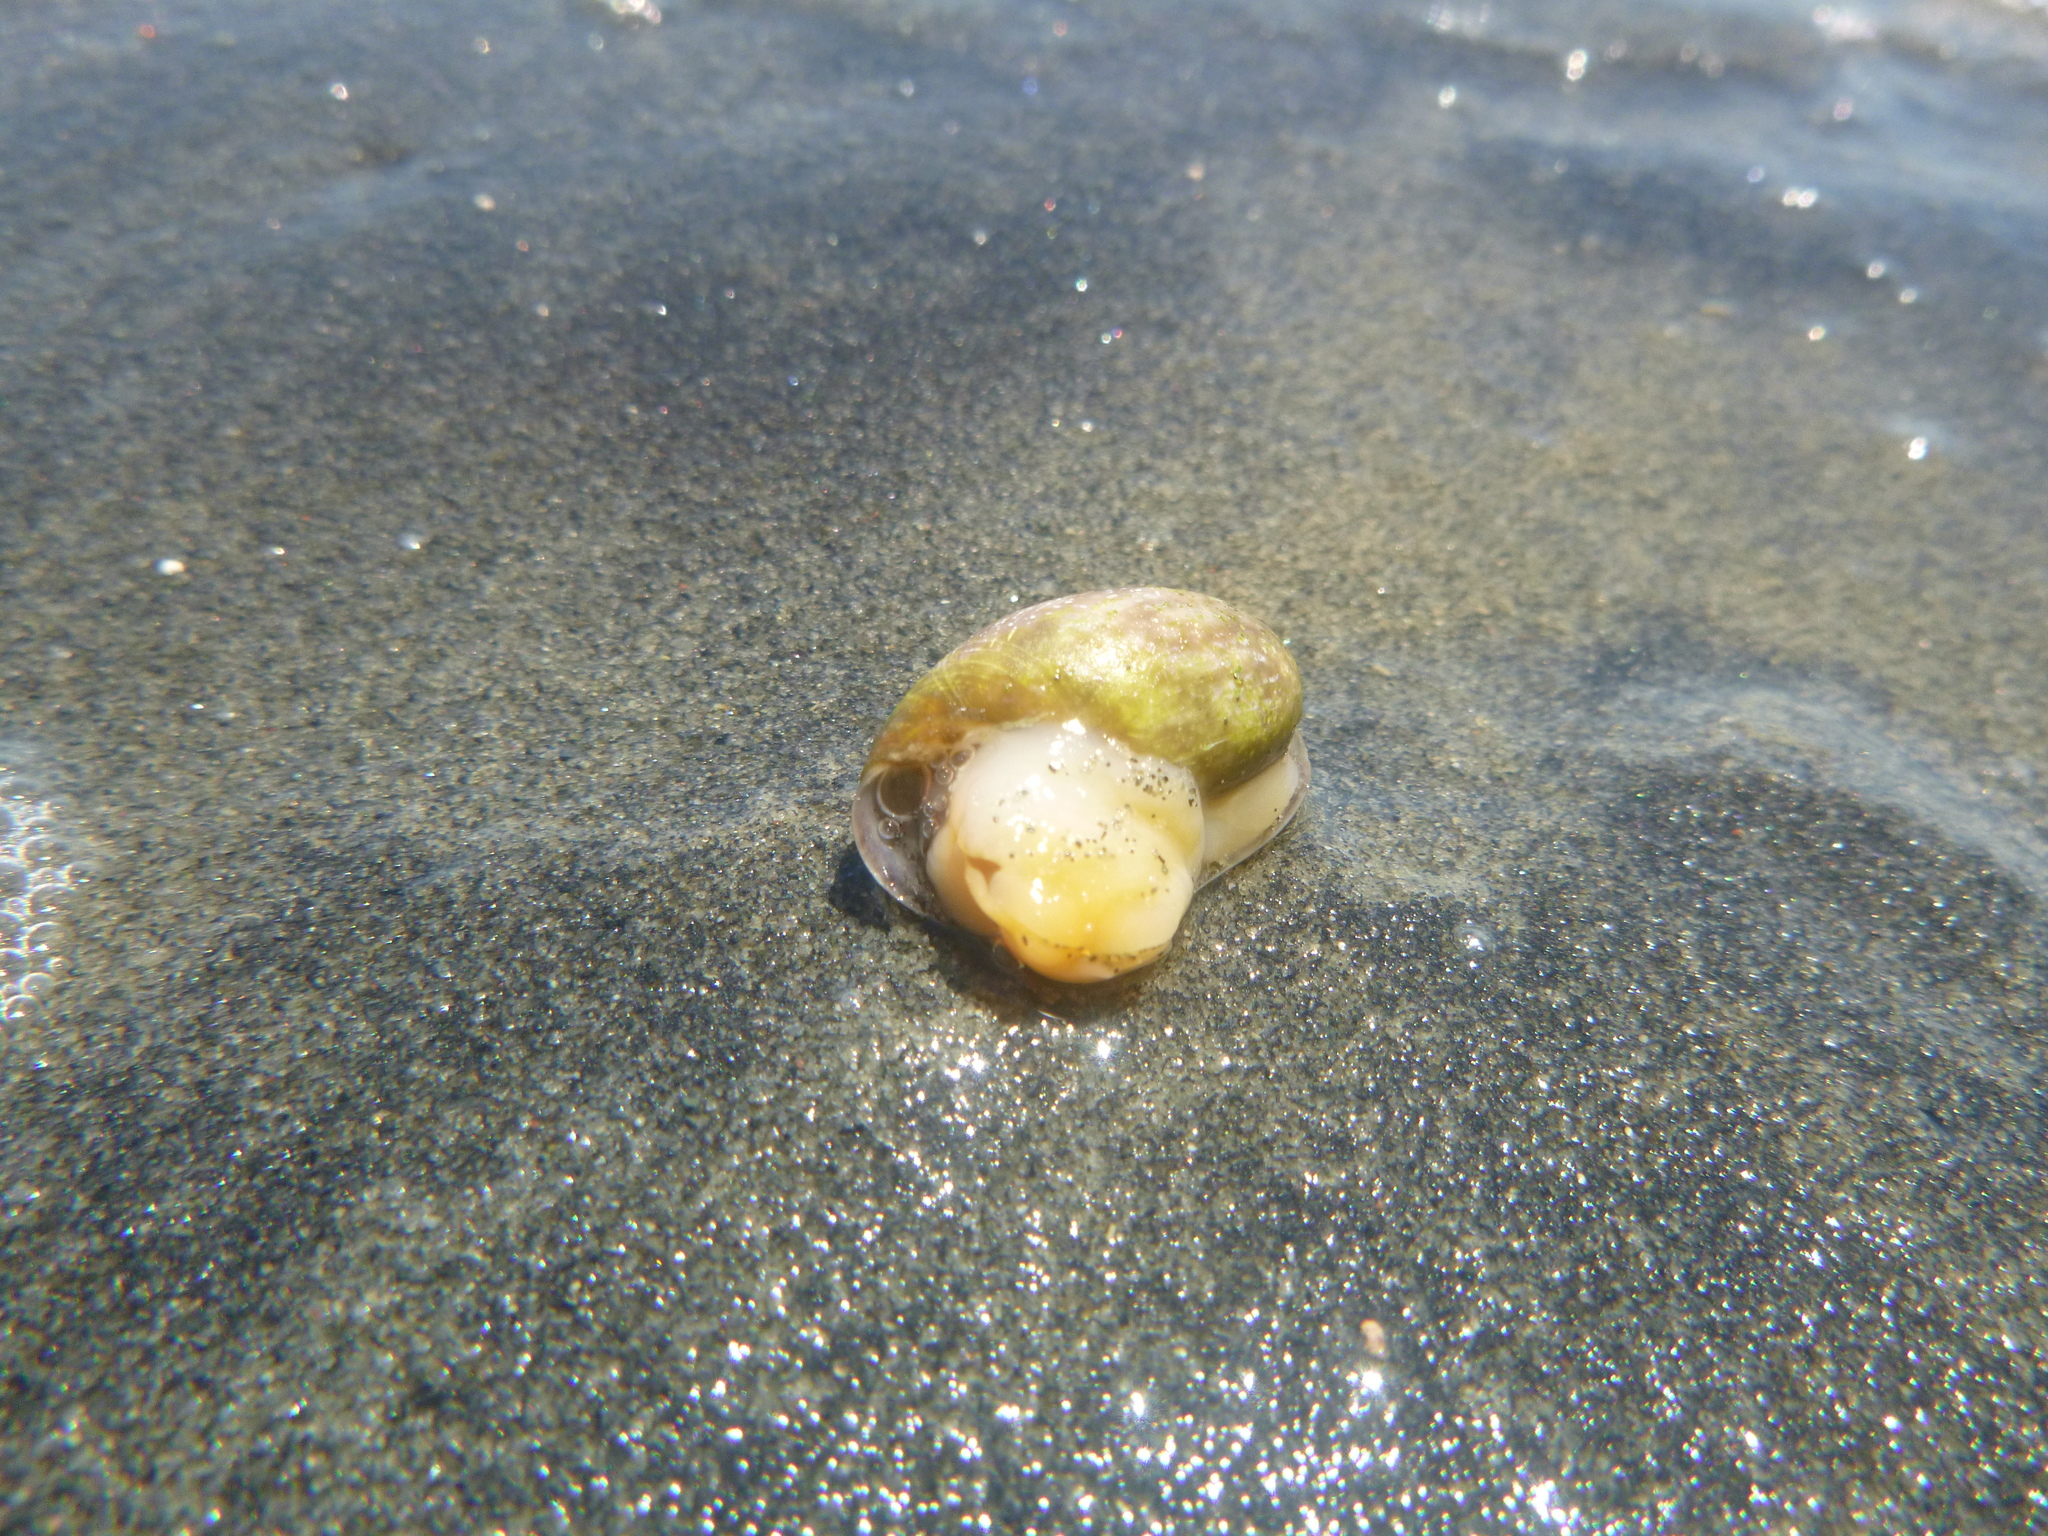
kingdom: Animalia
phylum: Mollusca
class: Gastropoda
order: Cephalaspidea
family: Bullidae
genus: Bulla
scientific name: Bulla quoyii
